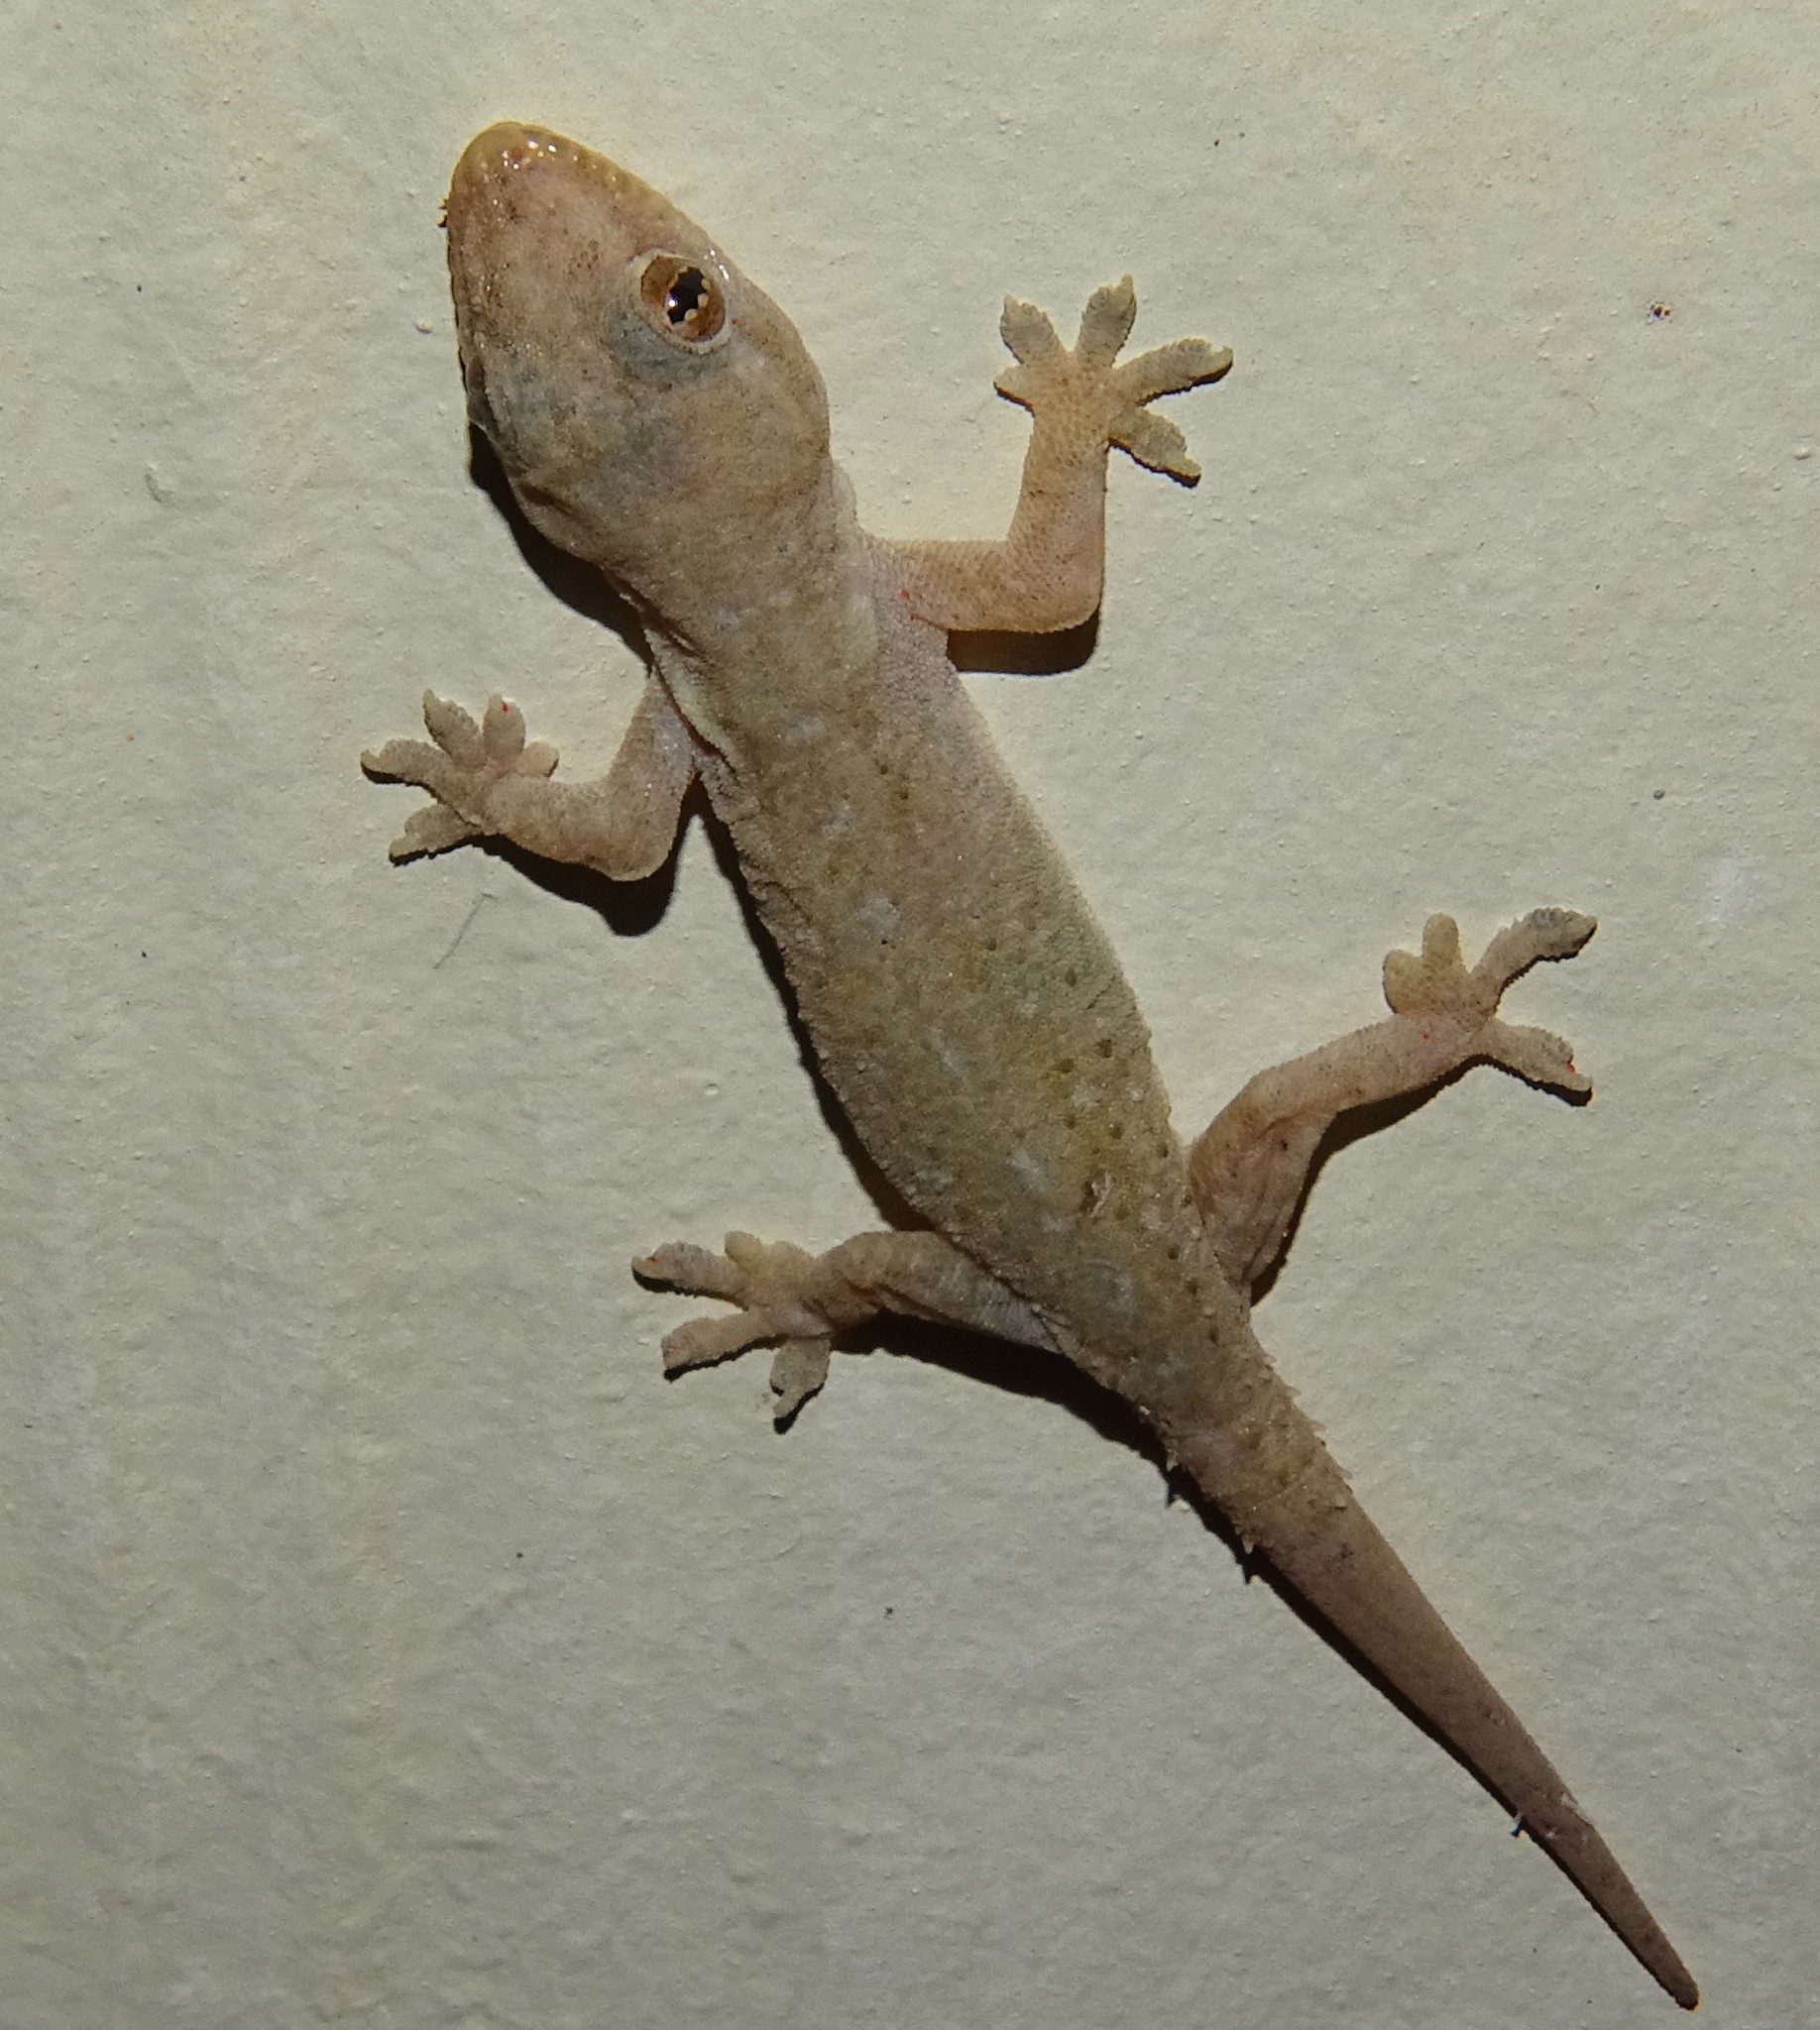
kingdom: Animalia
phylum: Chordata
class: Squamata
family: Gekkonidae
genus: Hemidactylus
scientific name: Hemidactylus frenatus
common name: Common house gecko
